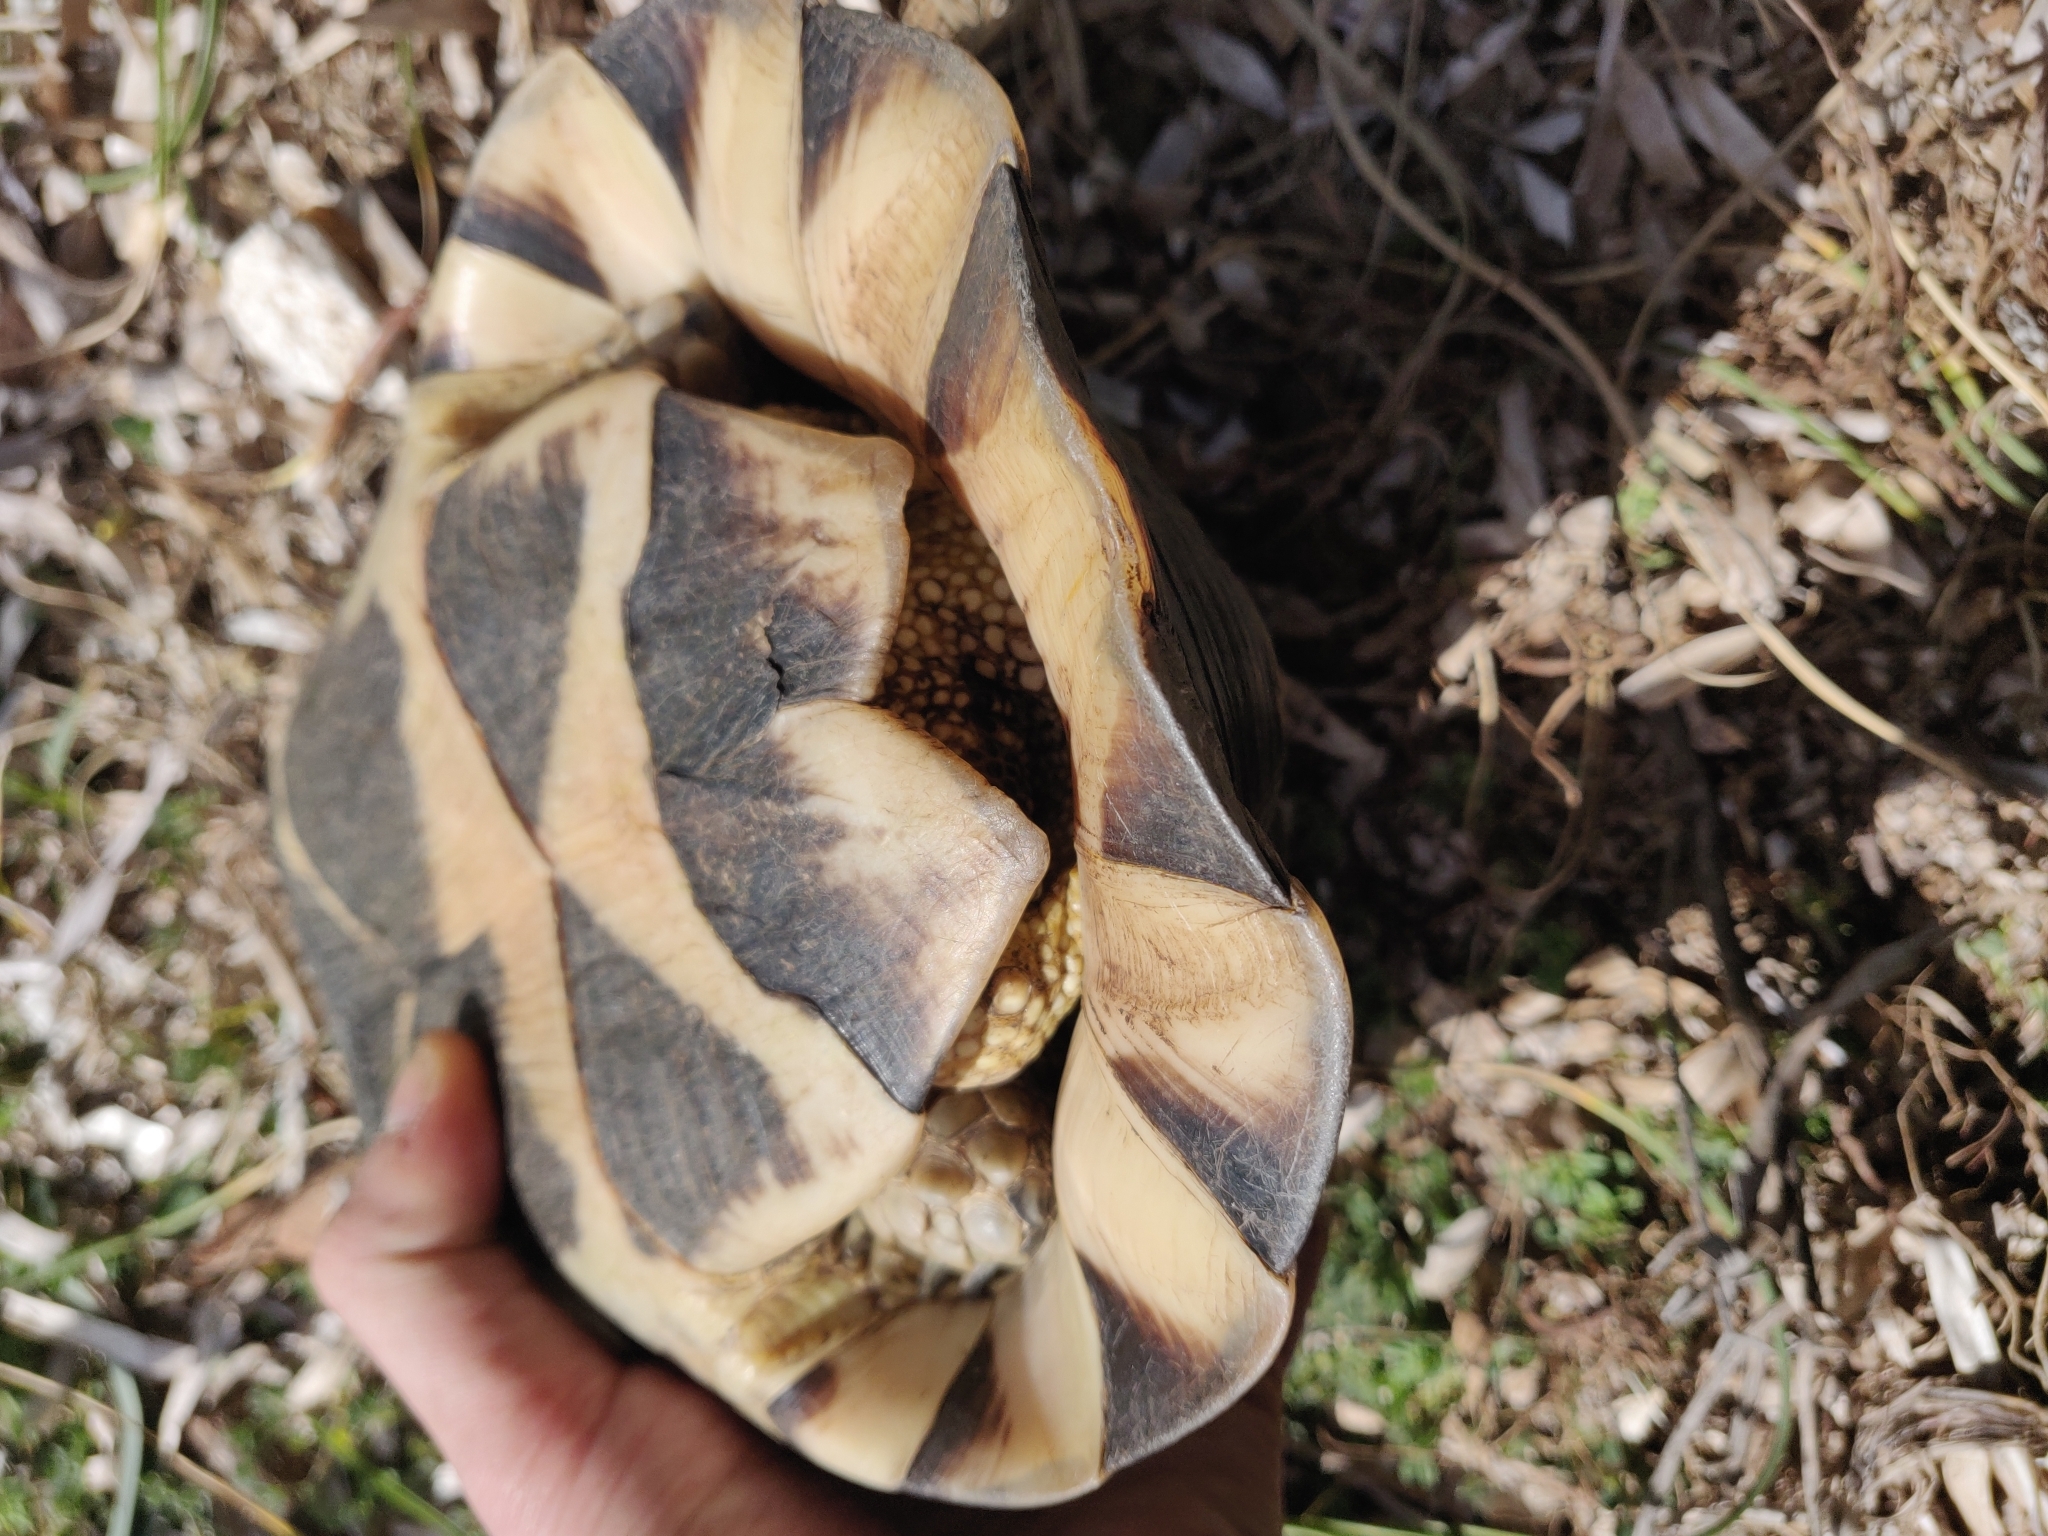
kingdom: Animalia
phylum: Chordata
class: Testudines
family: Testudinidae
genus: Testudo
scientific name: Testudo marginata
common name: Marginated tortoise
